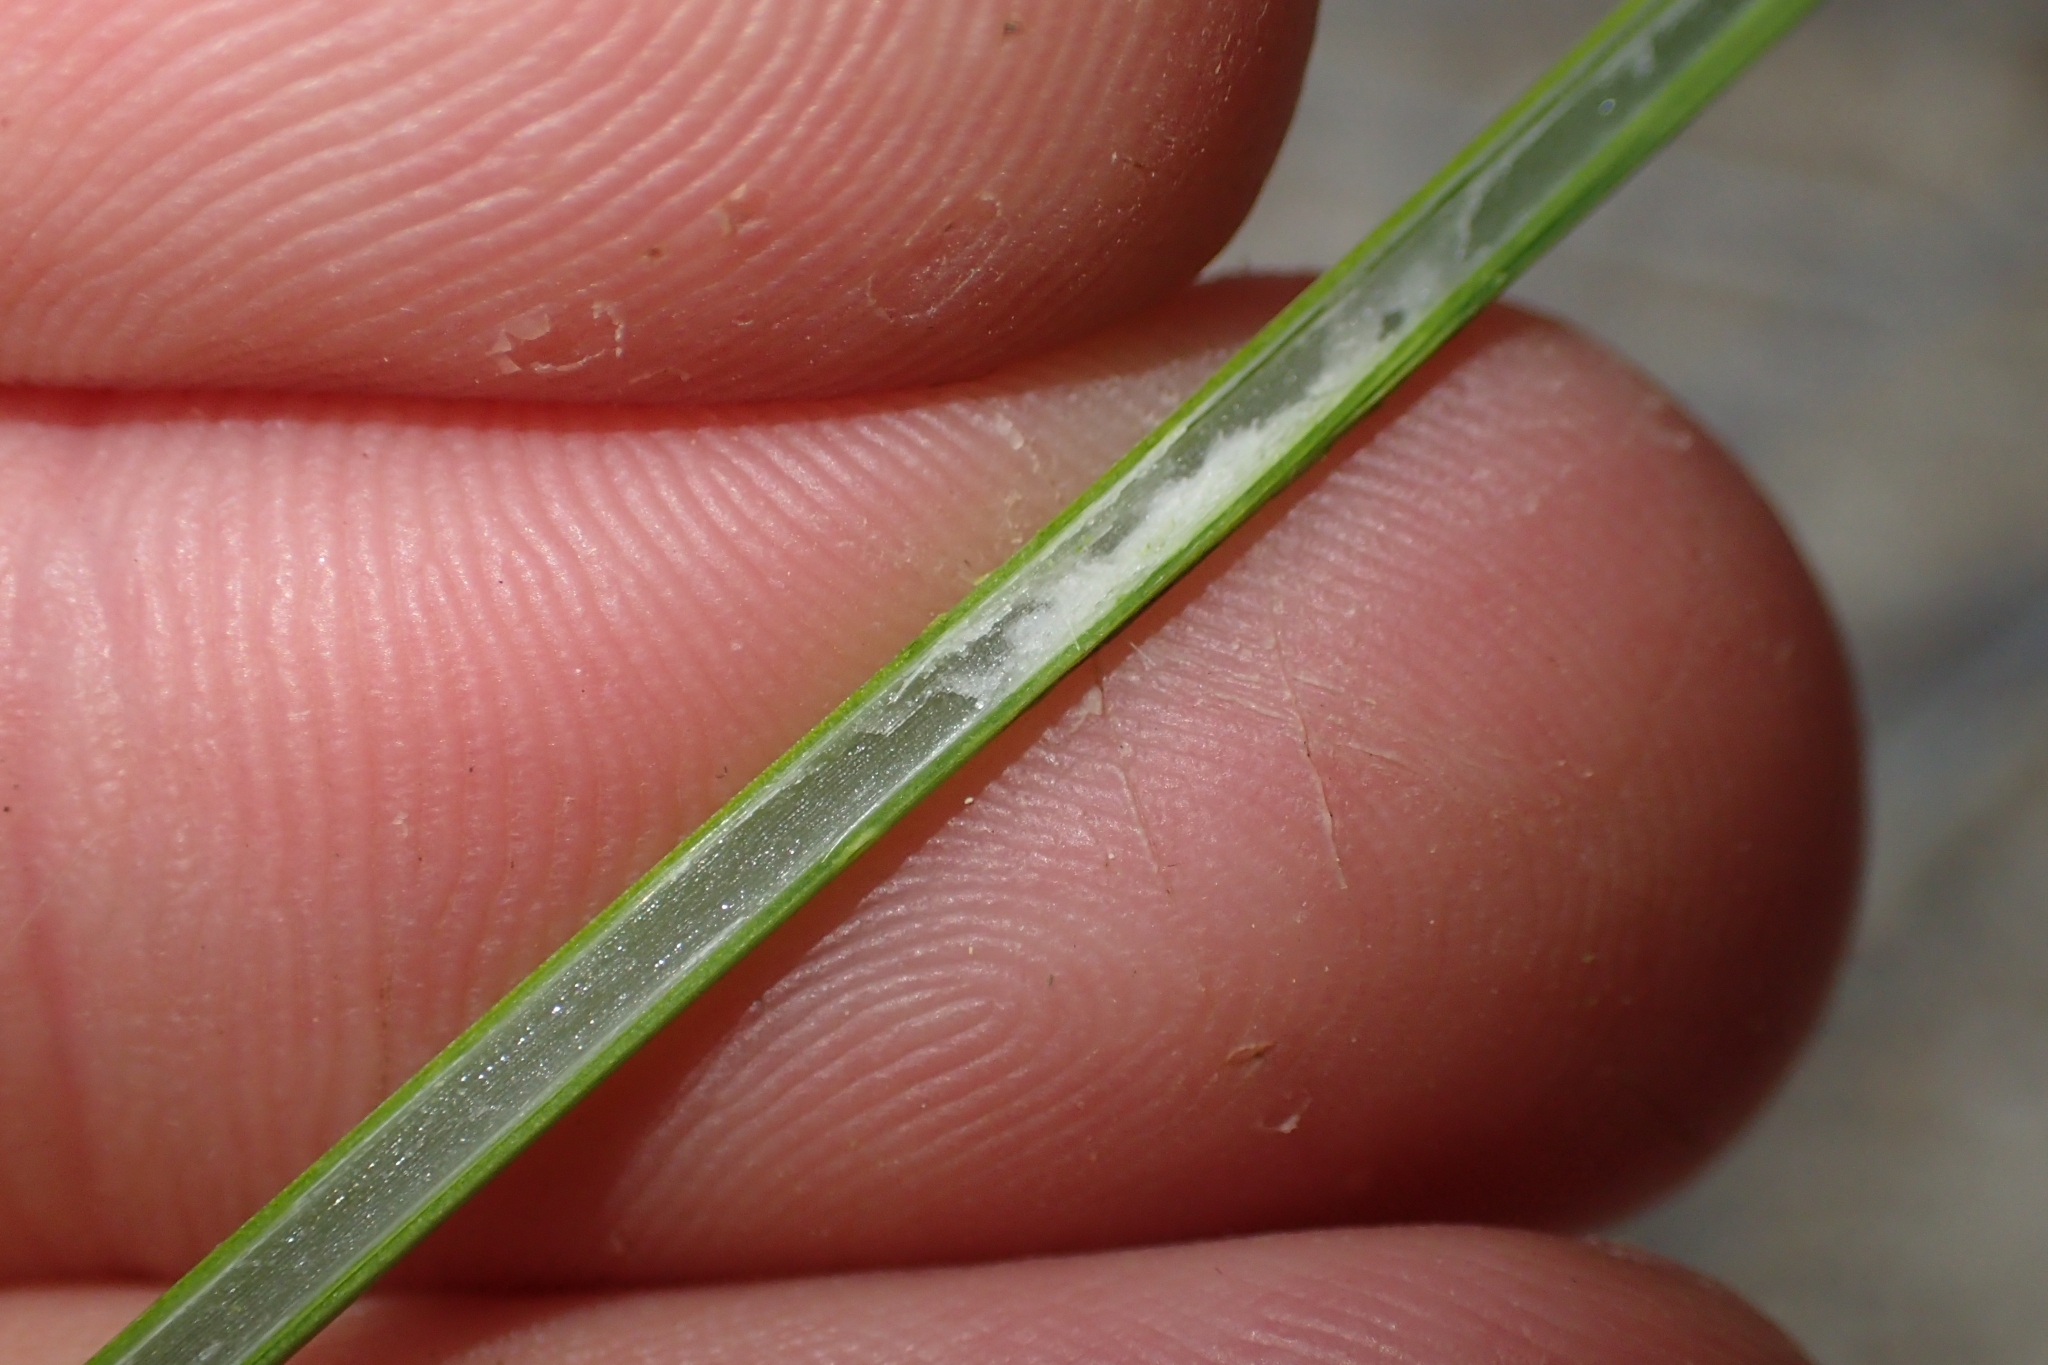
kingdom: Plantae
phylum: Tracheophyta
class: Liliopsida
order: Poales
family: Cyperaceae
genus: Schoenus
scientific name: Schoenus brevifolius
